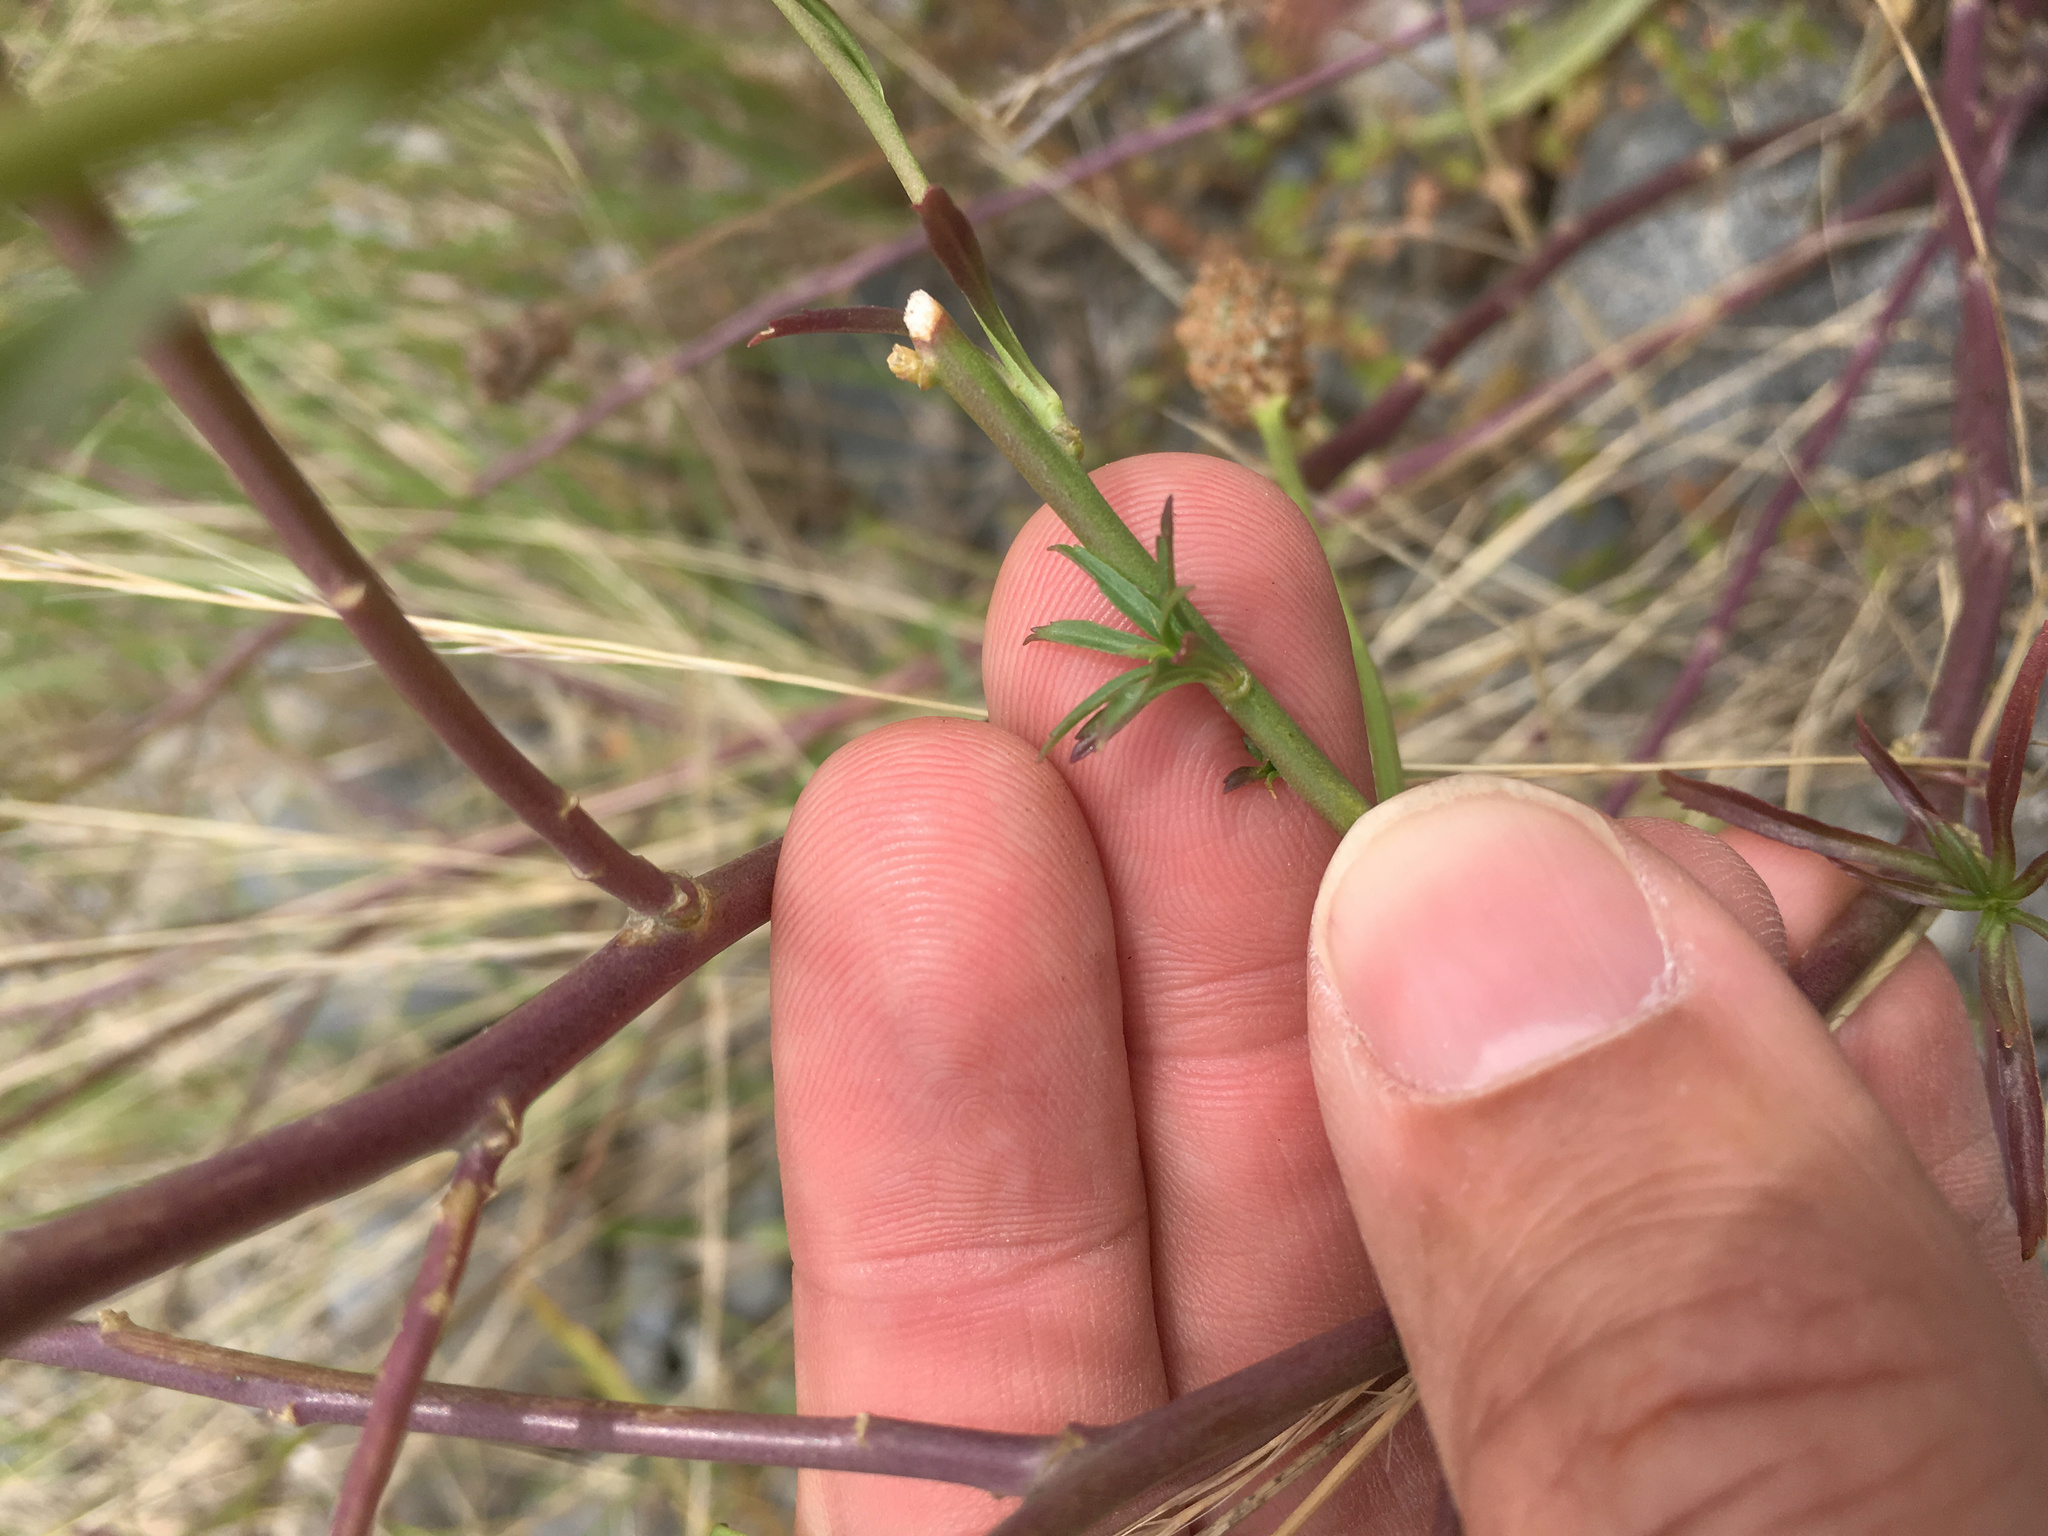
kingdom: Plantae
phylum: Tracheophyta
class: Magnoliopsida
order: Asterales
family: Asteraceae
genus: Symphyotrichum
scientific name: Symphyotrichum subulatum
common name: Annual saltmarsh aster
